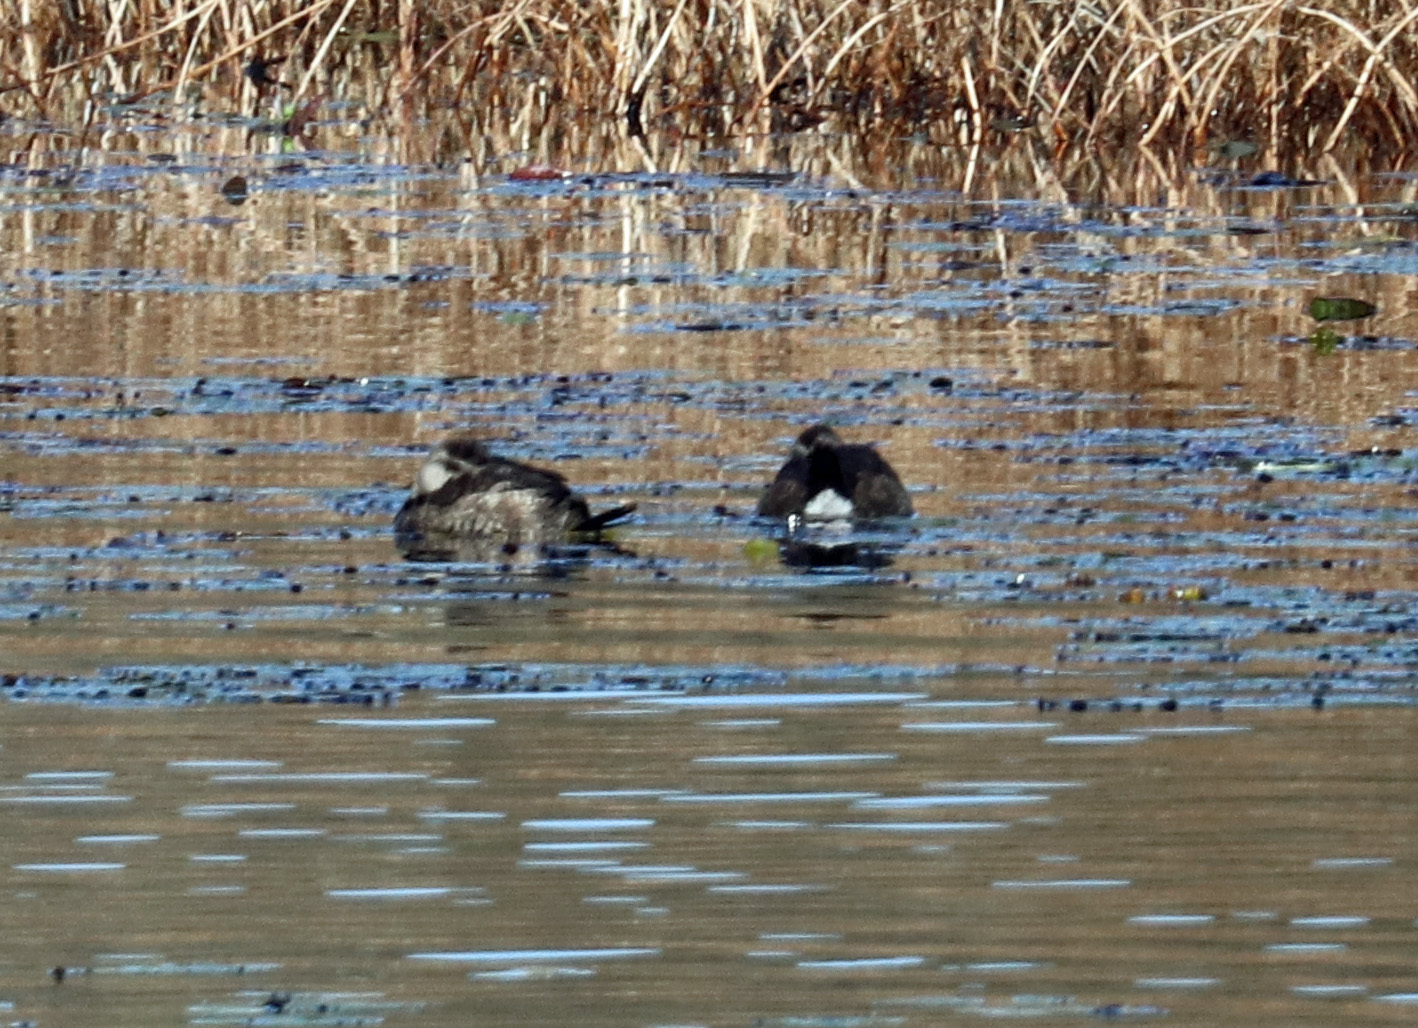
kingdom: Animalia
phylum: Chordata
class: Aves
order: Anseriformes
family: Anatidae
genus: Oxyura
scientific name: Oxyura jamaicensis
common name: Ruddy duck
